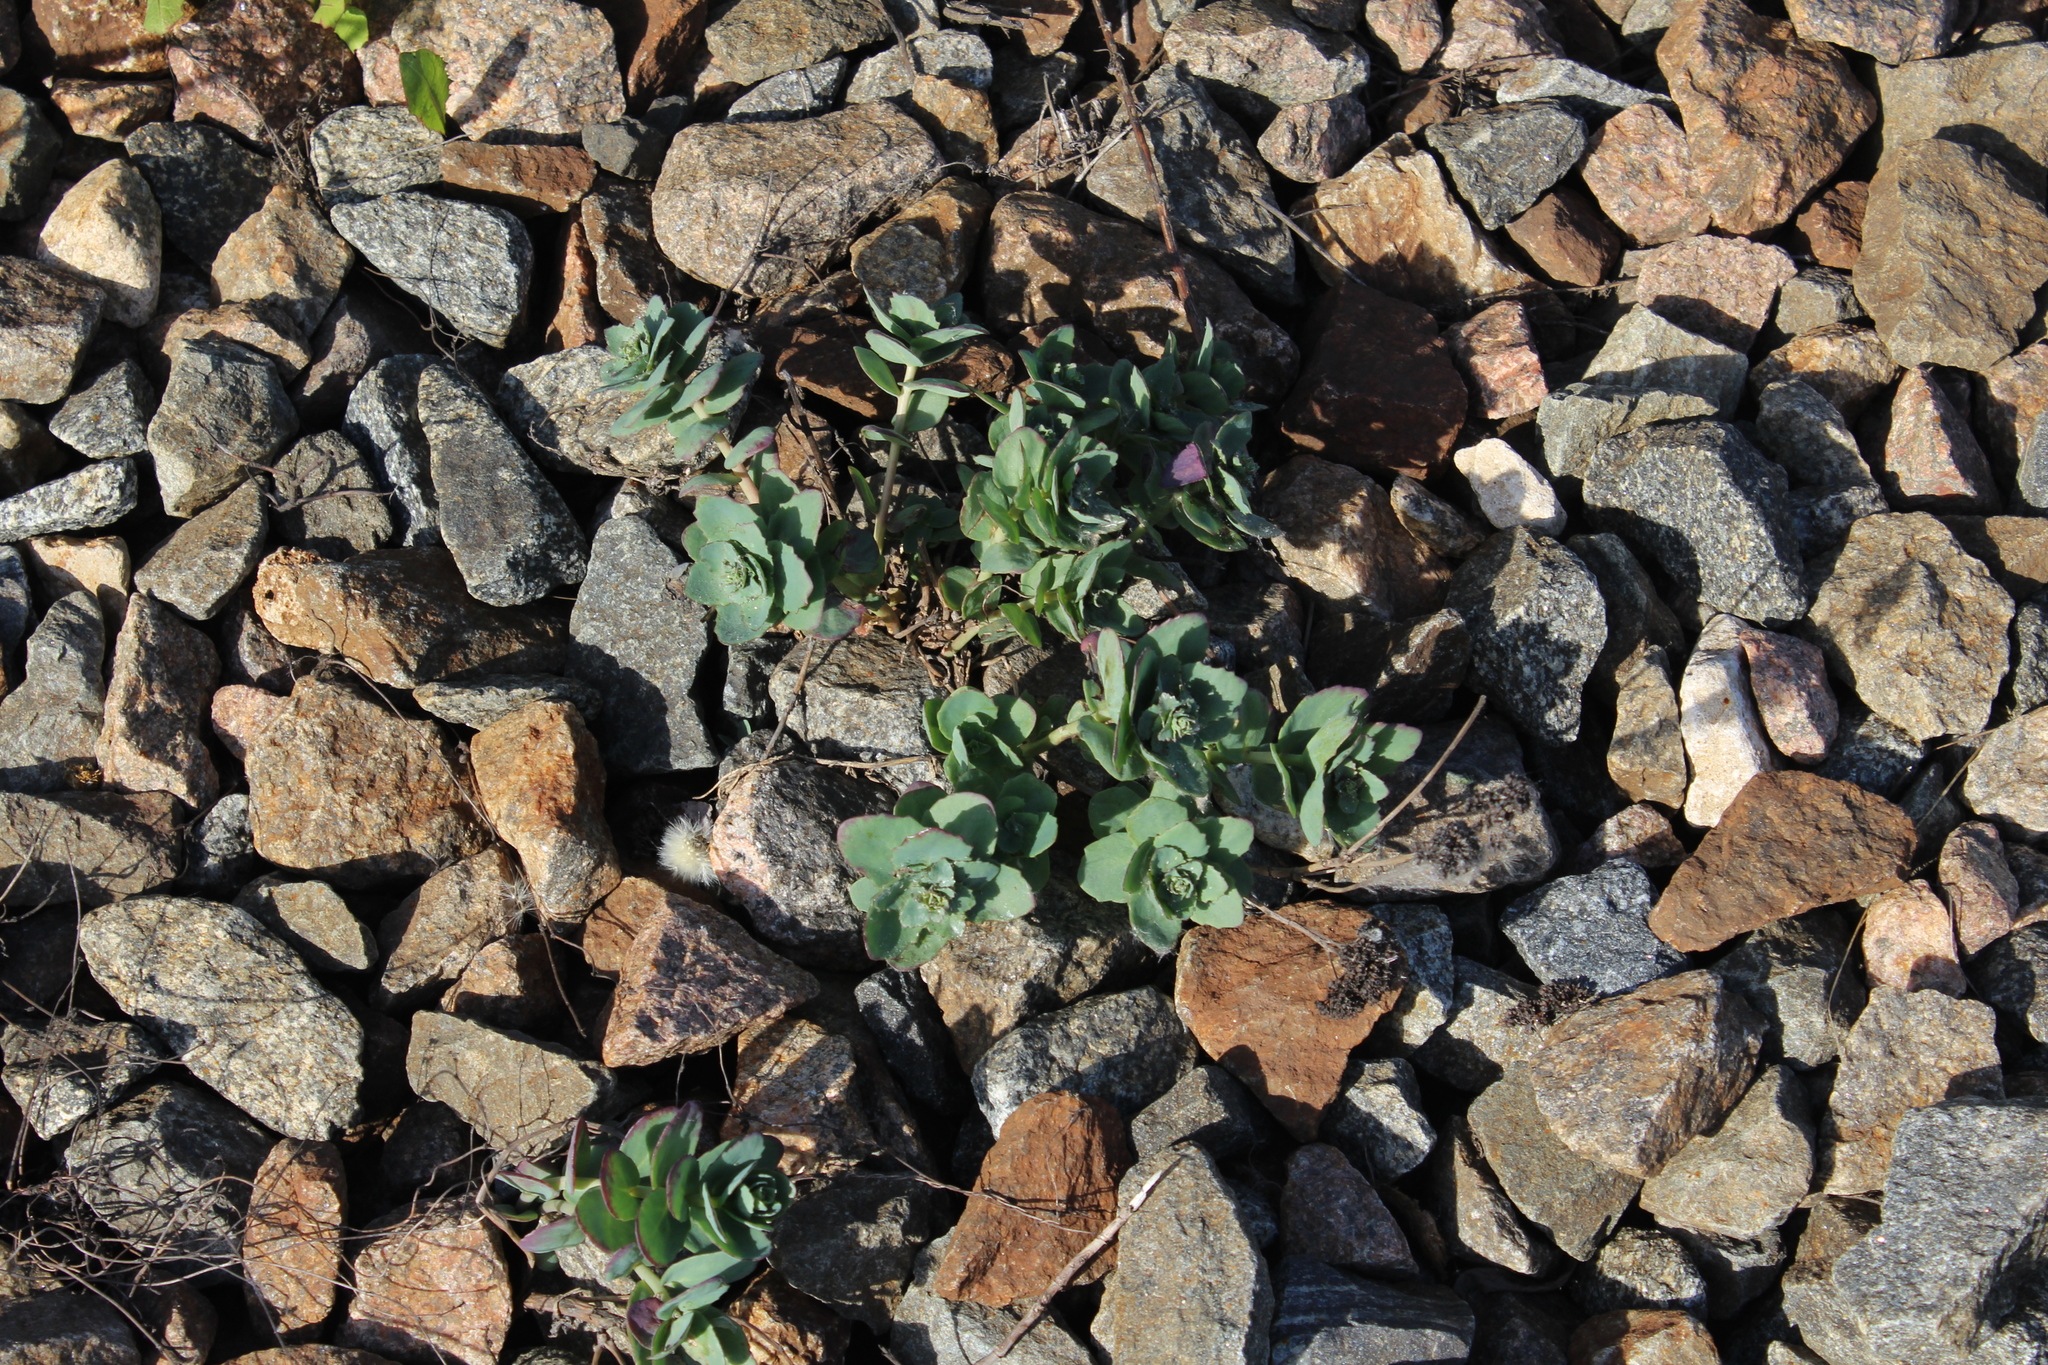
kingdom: Plantae
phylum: Tracheophyta
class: Magnoliopsida
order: Saxifragales
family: Crassulaceae
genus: Hylotelephium
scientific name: Hylotelephium maximum
